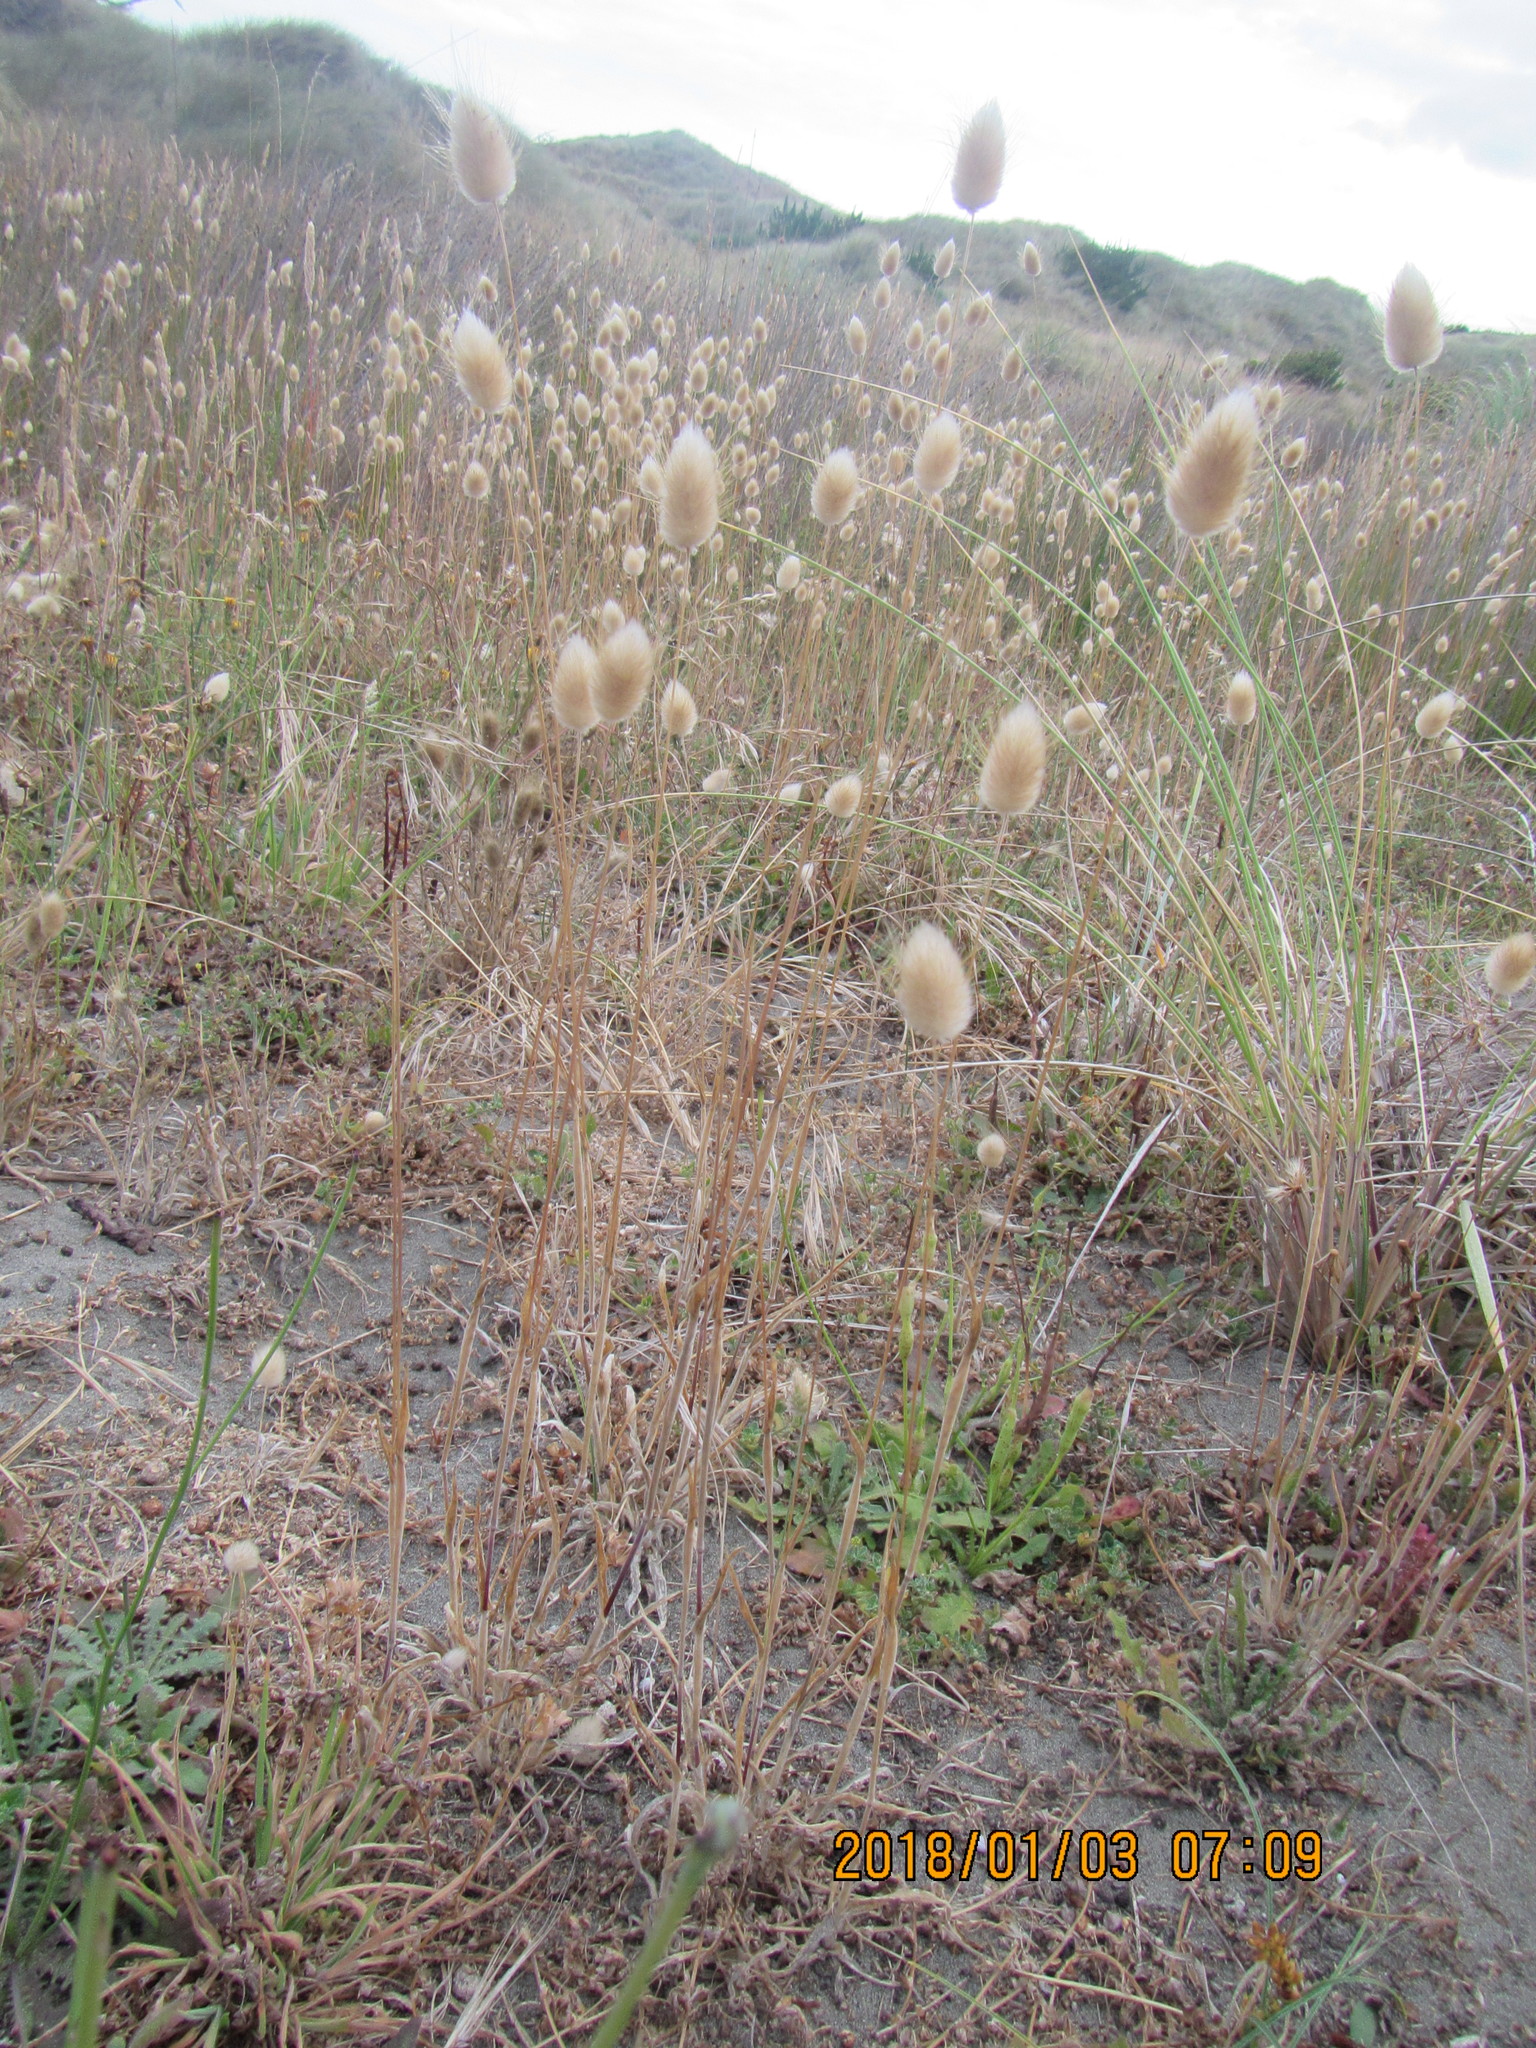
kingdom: Plantae
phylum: Tracheophyta
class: Liliopsida
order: Poales
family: Poaceae
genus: Lagurus
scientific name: Lagurus ovatus
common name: Hare's-tail
